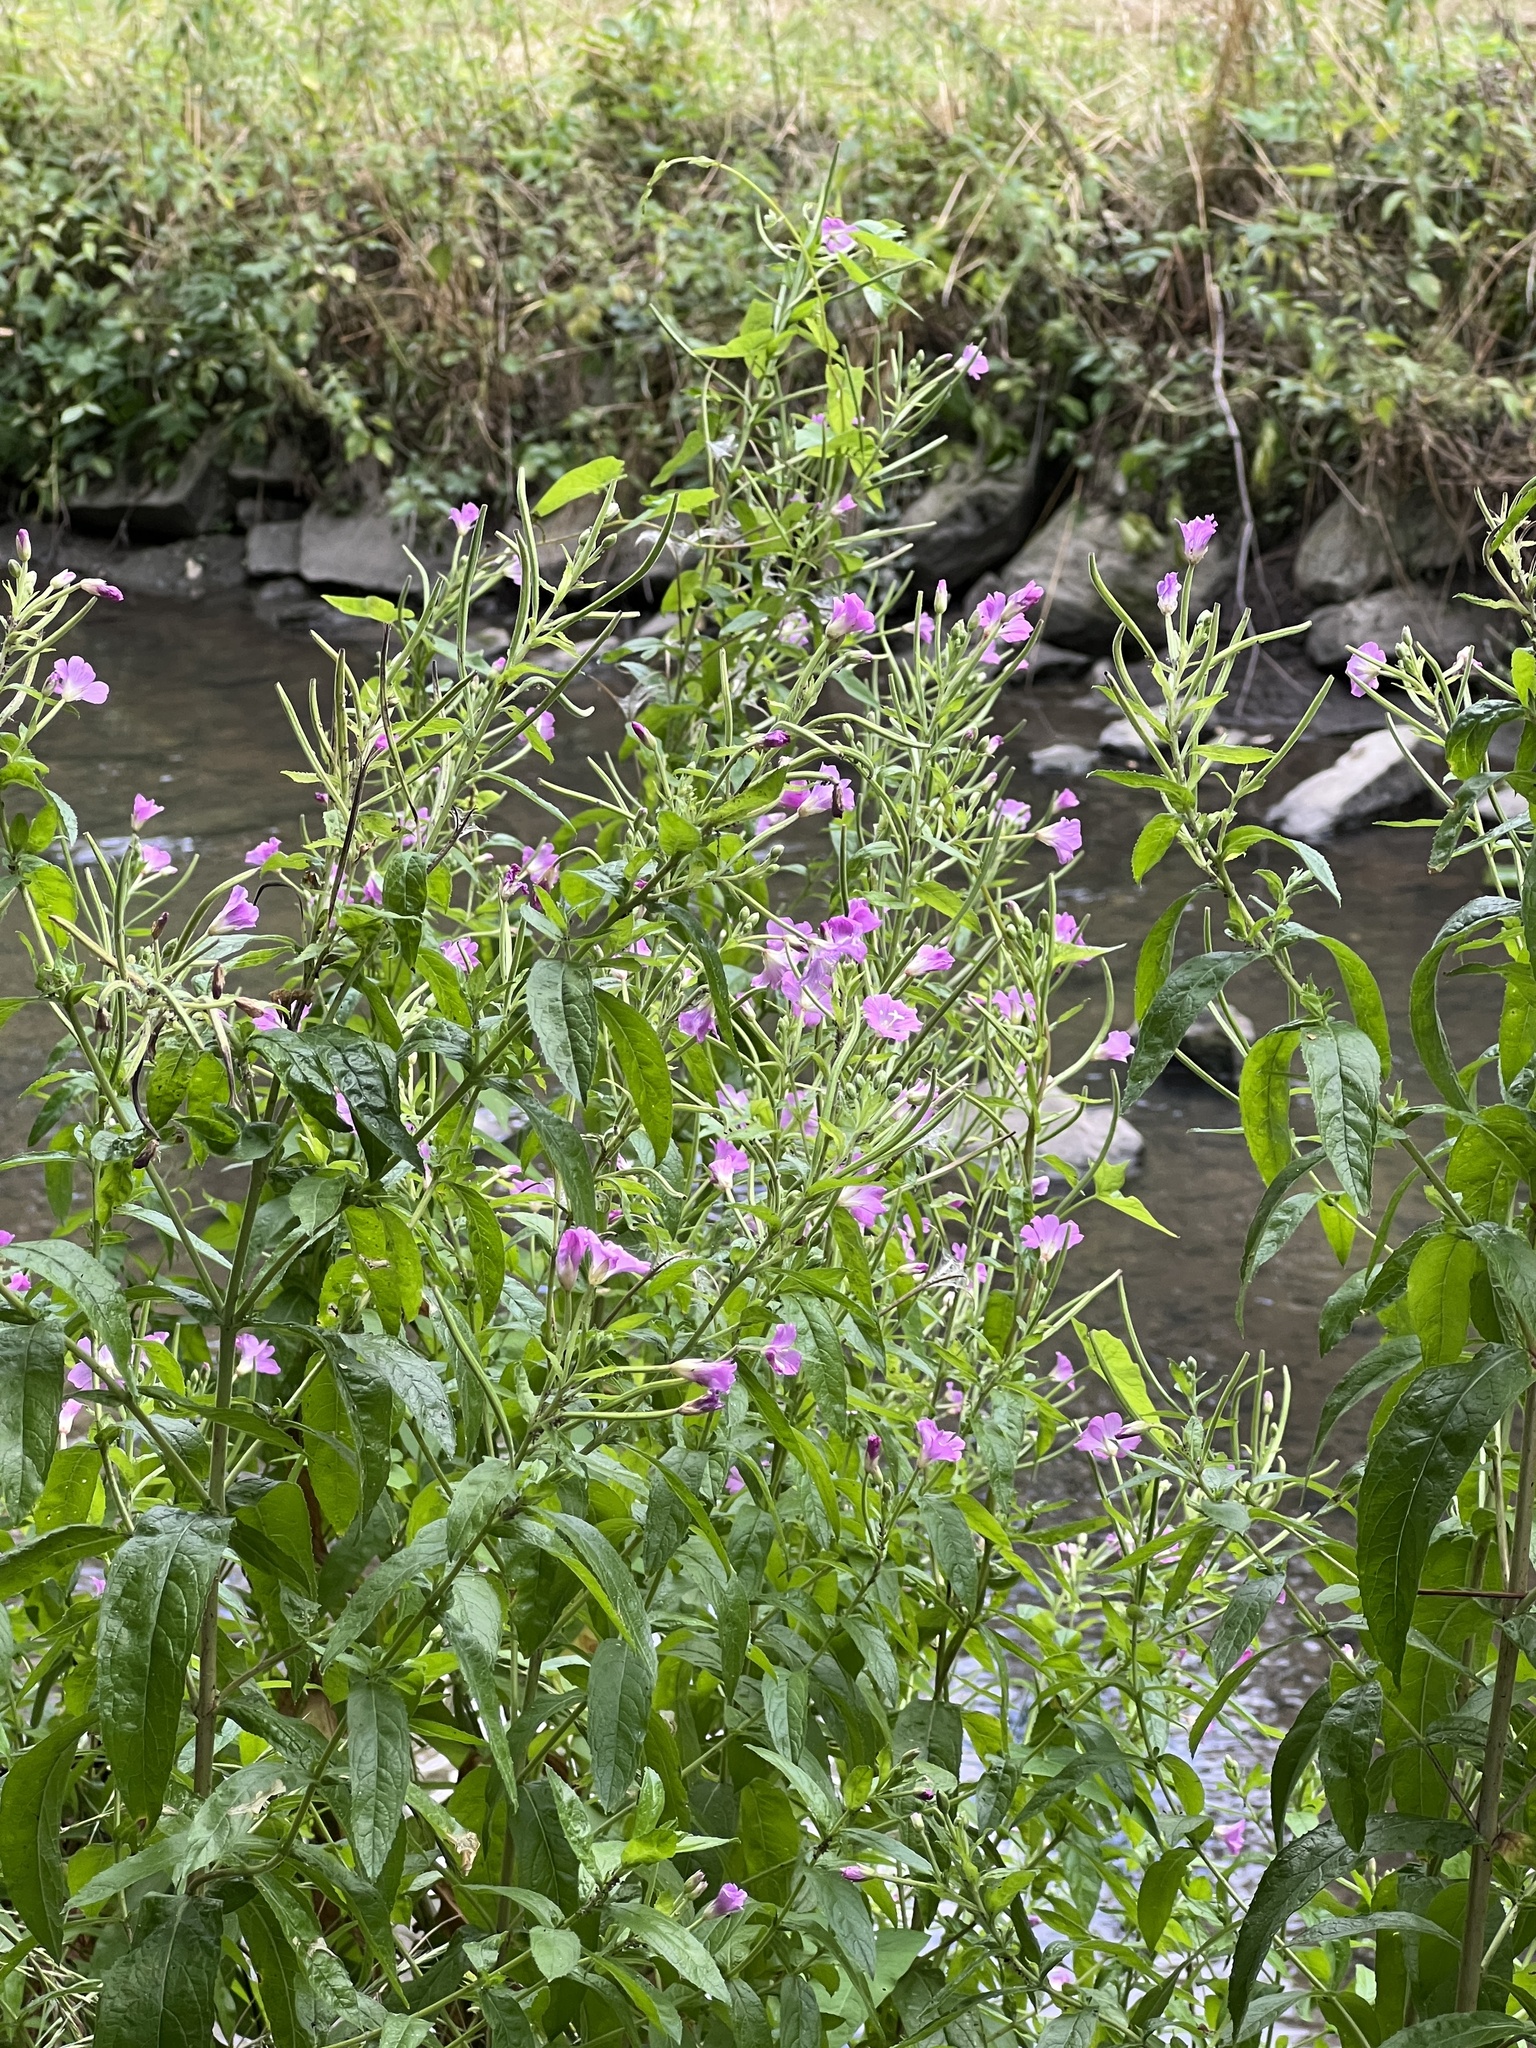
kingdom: Plantae
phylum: Tracheophyta
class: Magnoliopsida
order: Myrtales
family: Onagraceae
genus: Epilobium
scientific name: Epilobium hirsutum
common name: Great willowherb
